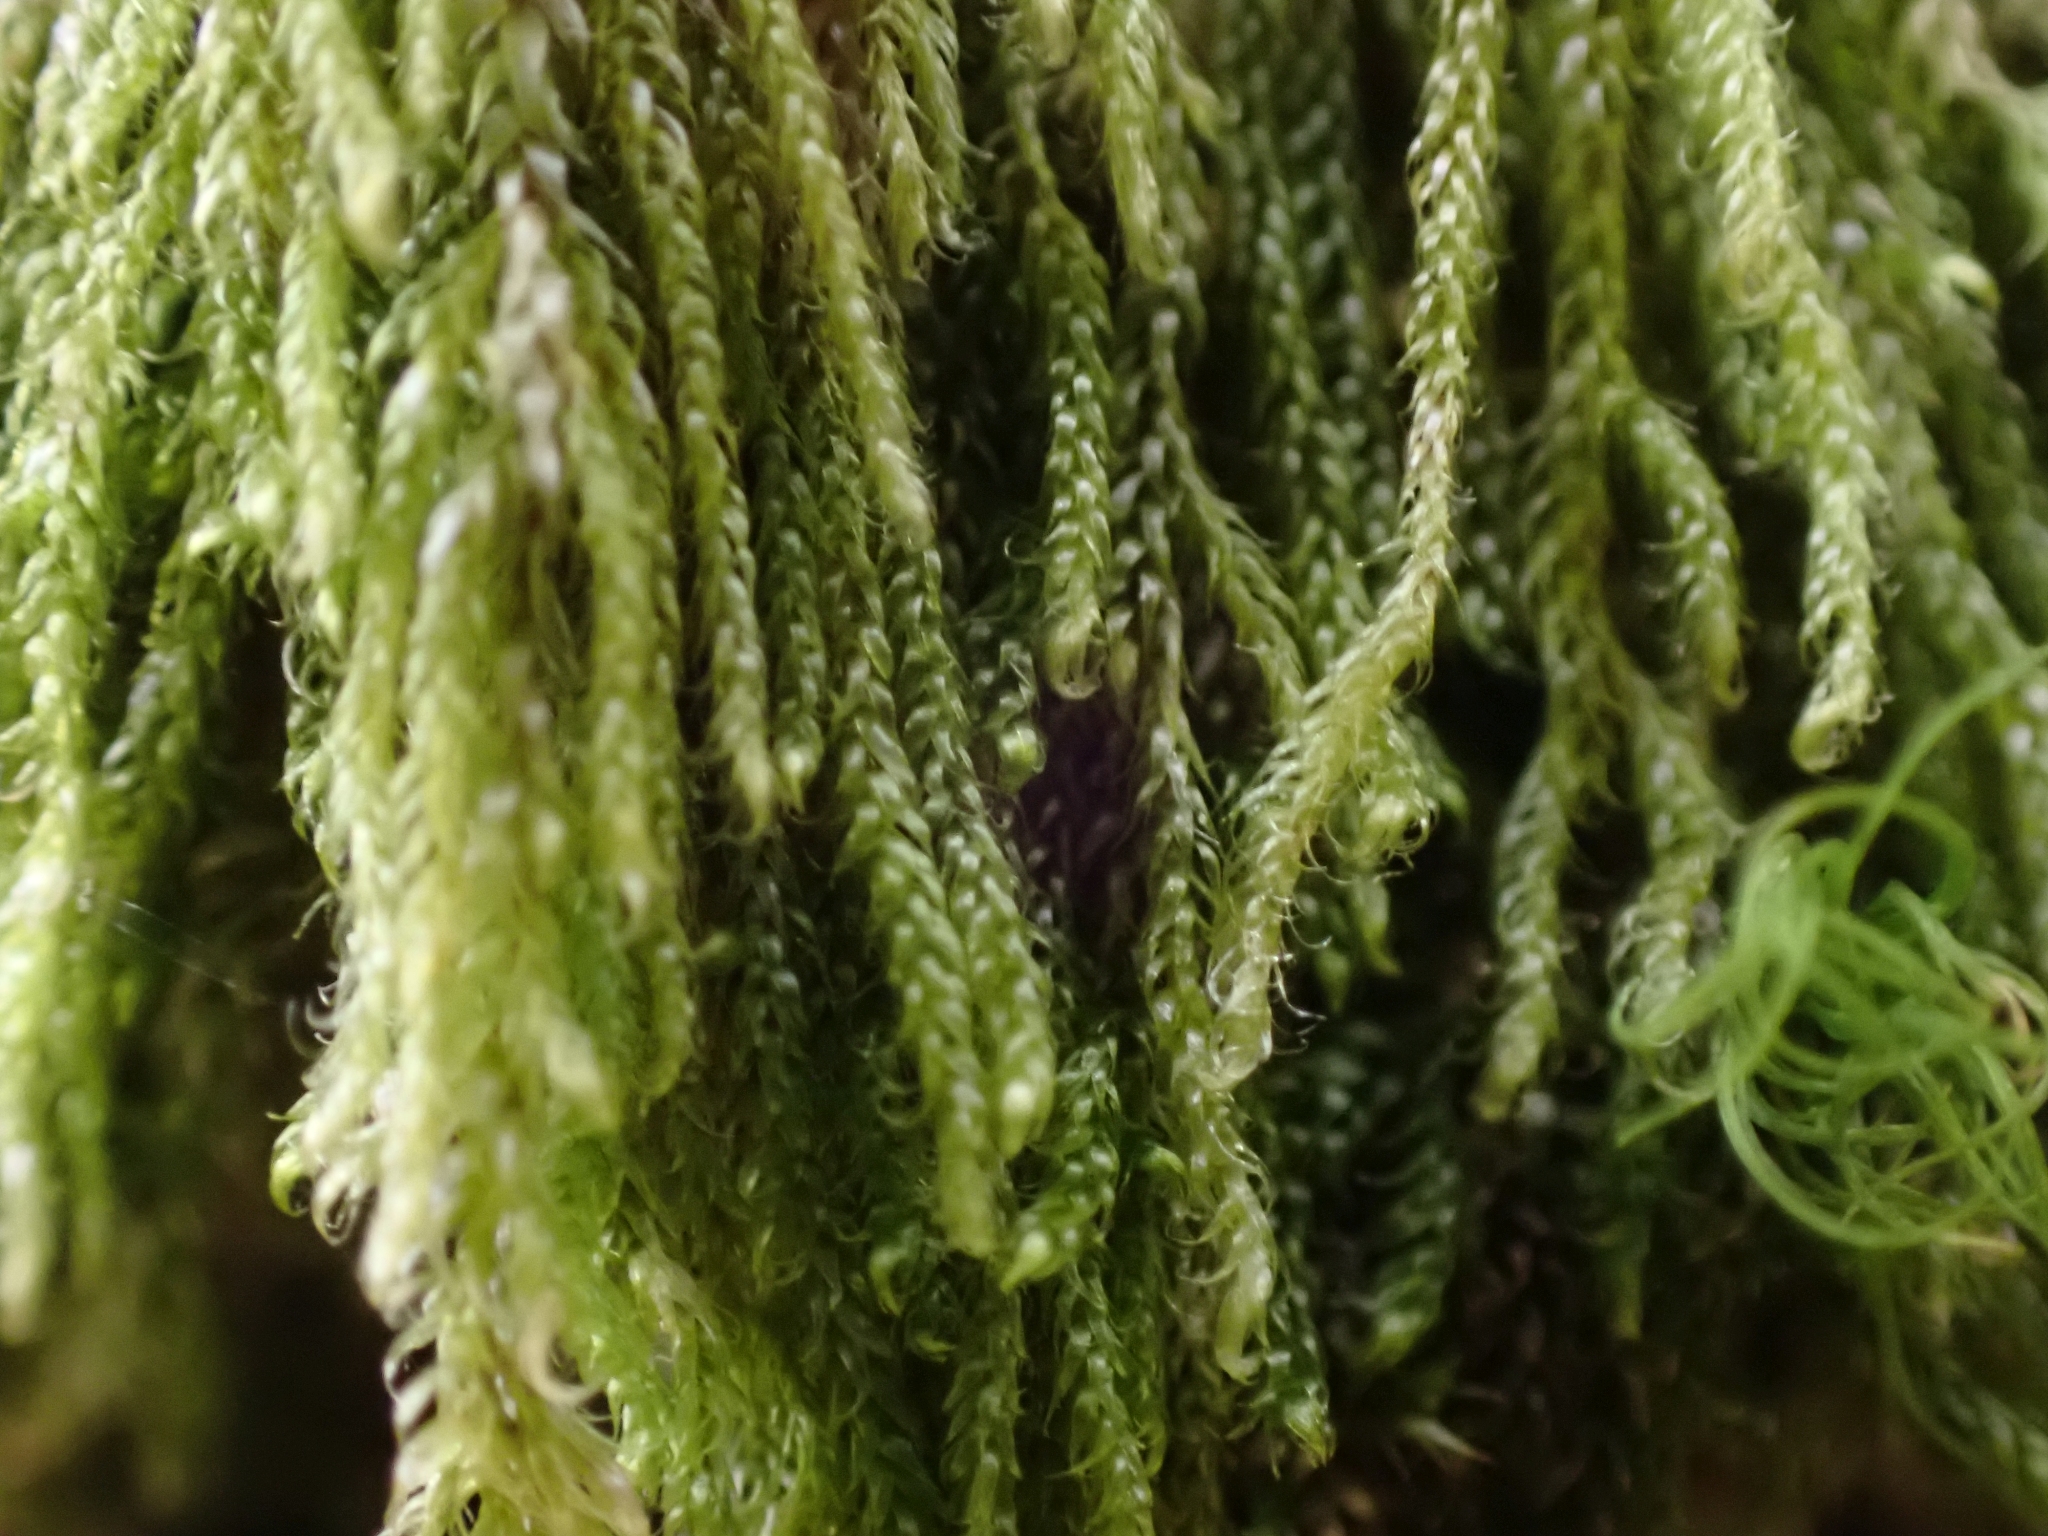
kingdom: Plantae
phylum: Bryophyta
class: Bryopsida
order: Hypnales
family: Pylaisiadelphaceae
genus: Trochophyllohypnum
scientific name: Trochophyllohypnum circinale
